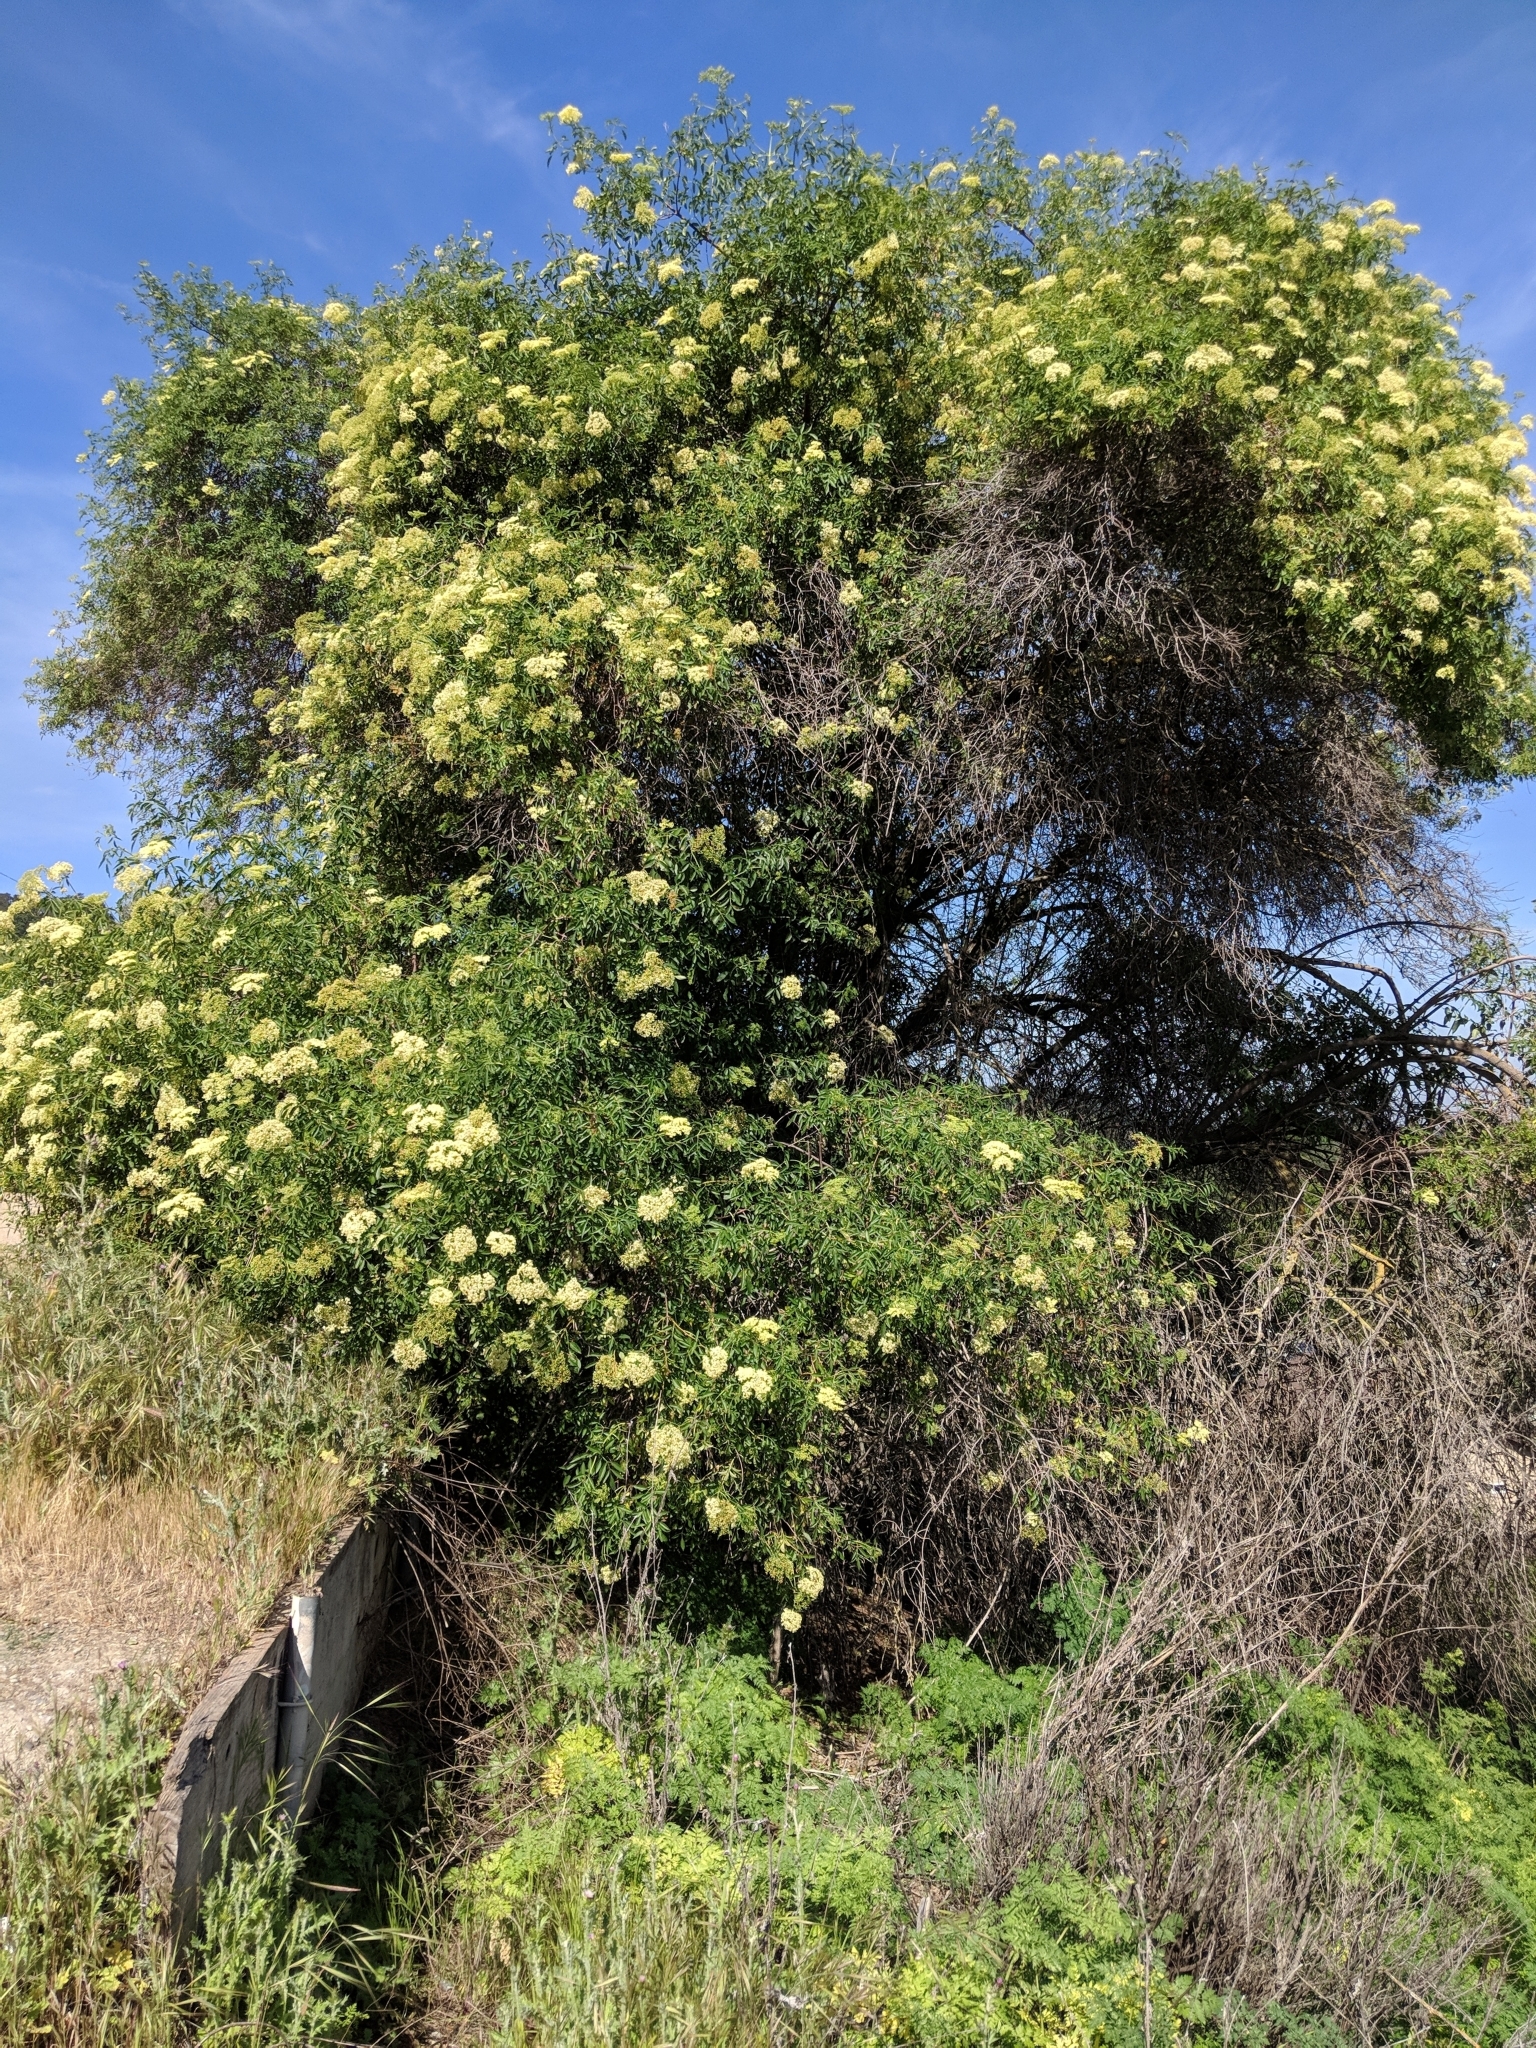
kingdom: Plantae
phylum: Tracheophyta
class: Magnoliopsida
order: Dipsacales
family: Viburnaceae
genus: Sambucus
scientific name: Sambucus cerulea
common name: Blue elder
